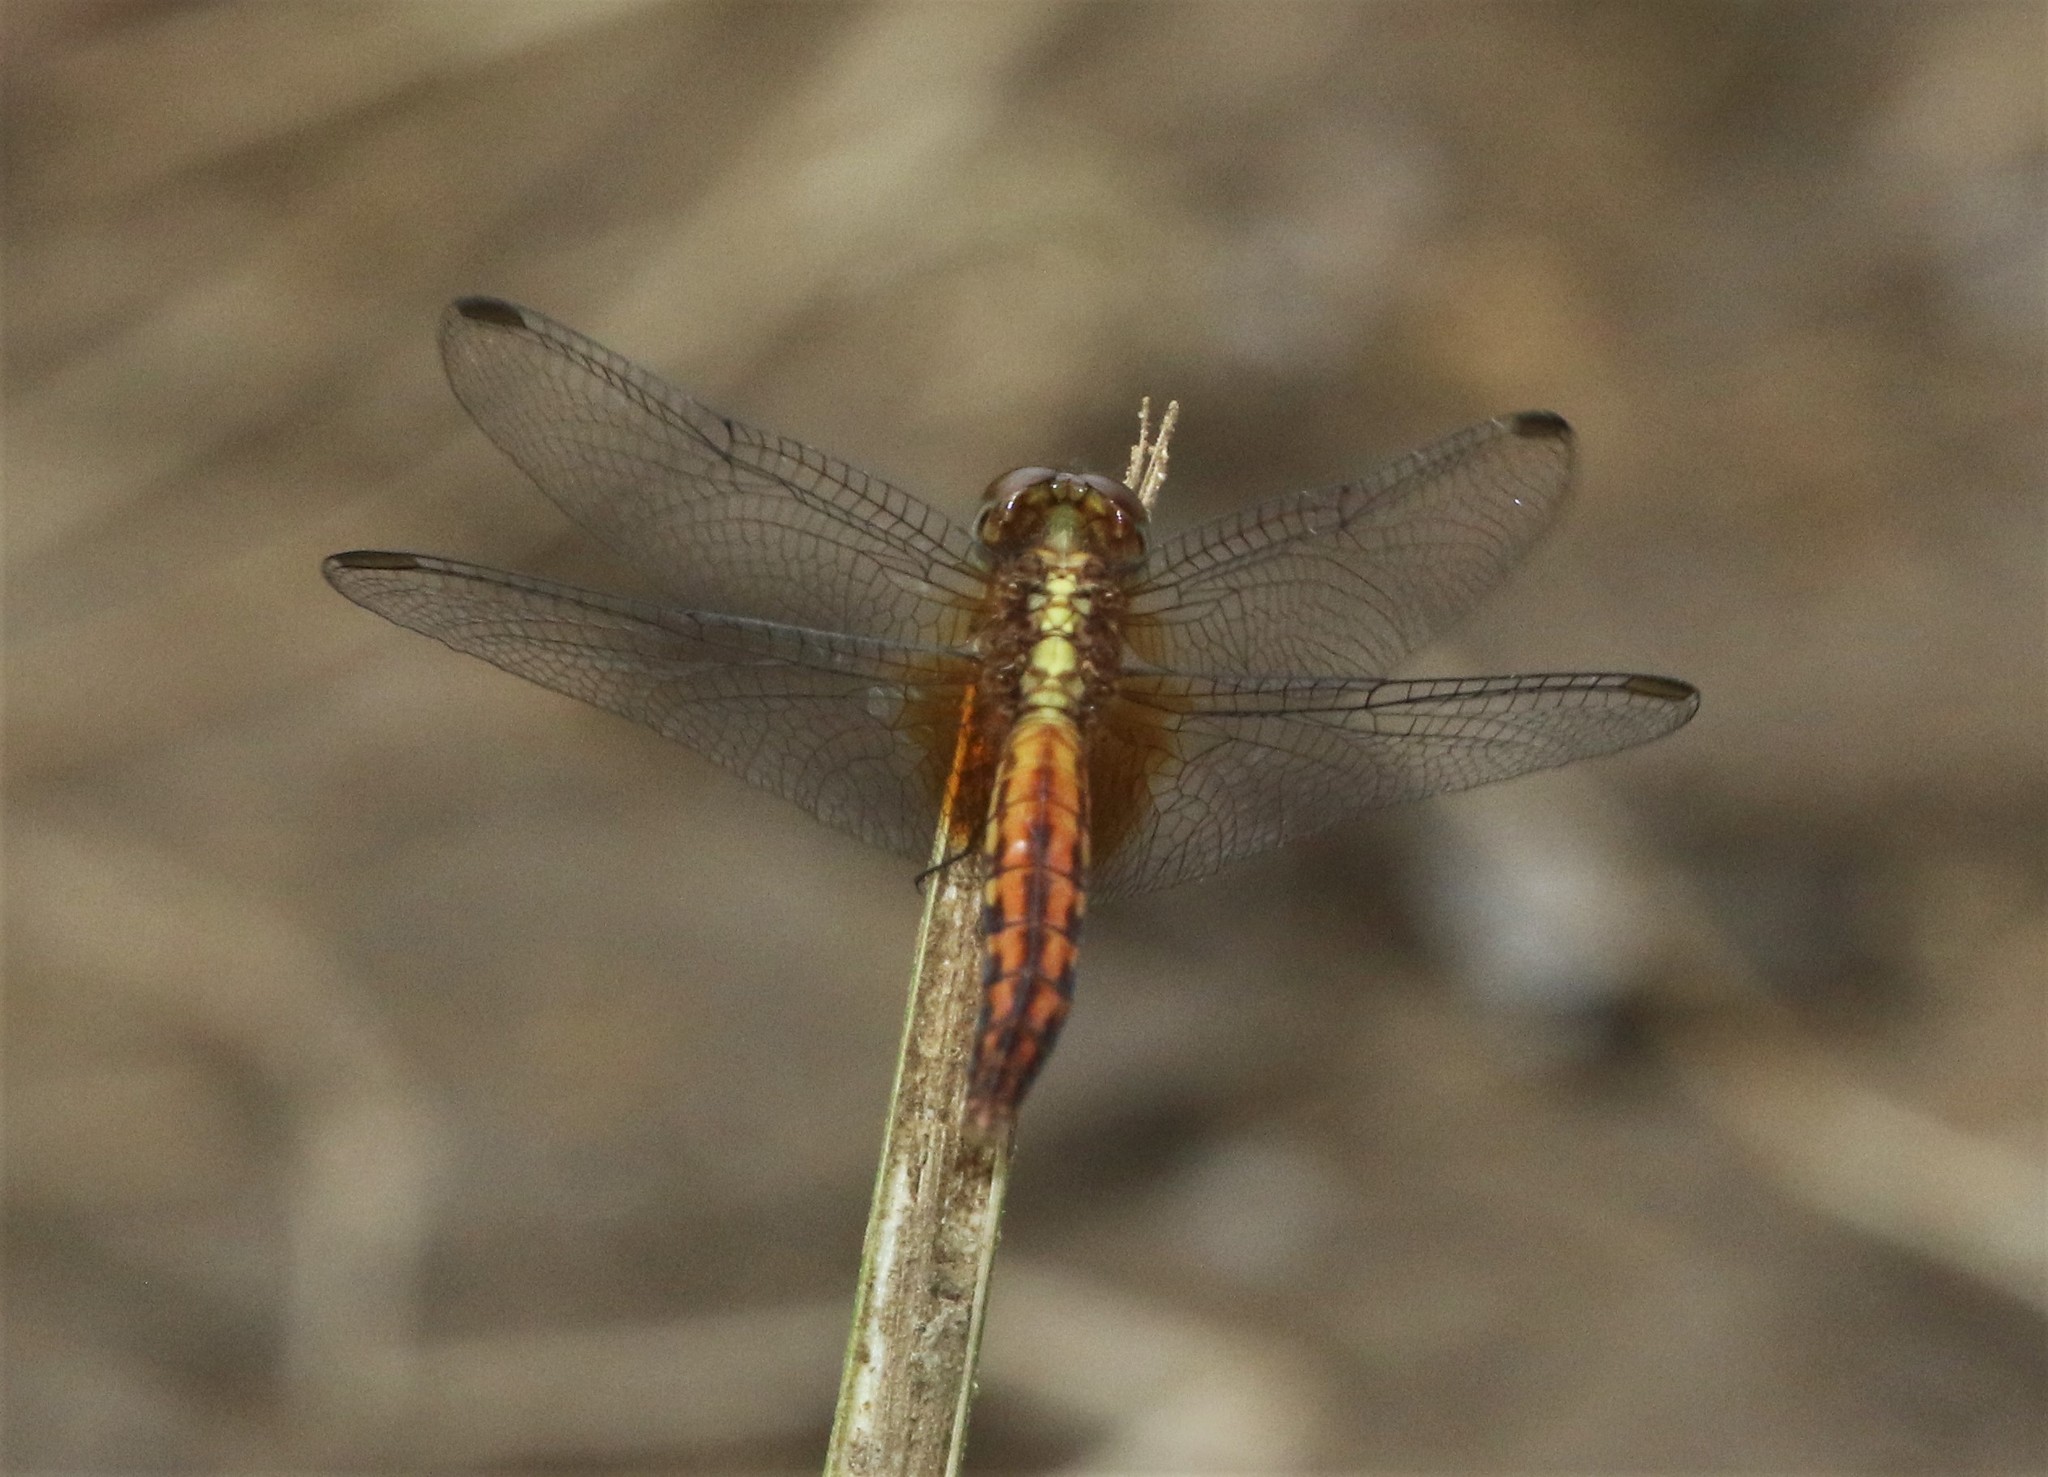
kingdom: Animalia
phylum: Arthropoda
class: Insecta
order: Odonata
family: Libellulidae
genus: Erythrodiplax
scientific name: Erythrodiplax fusca
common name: Red-faced dragonlet
